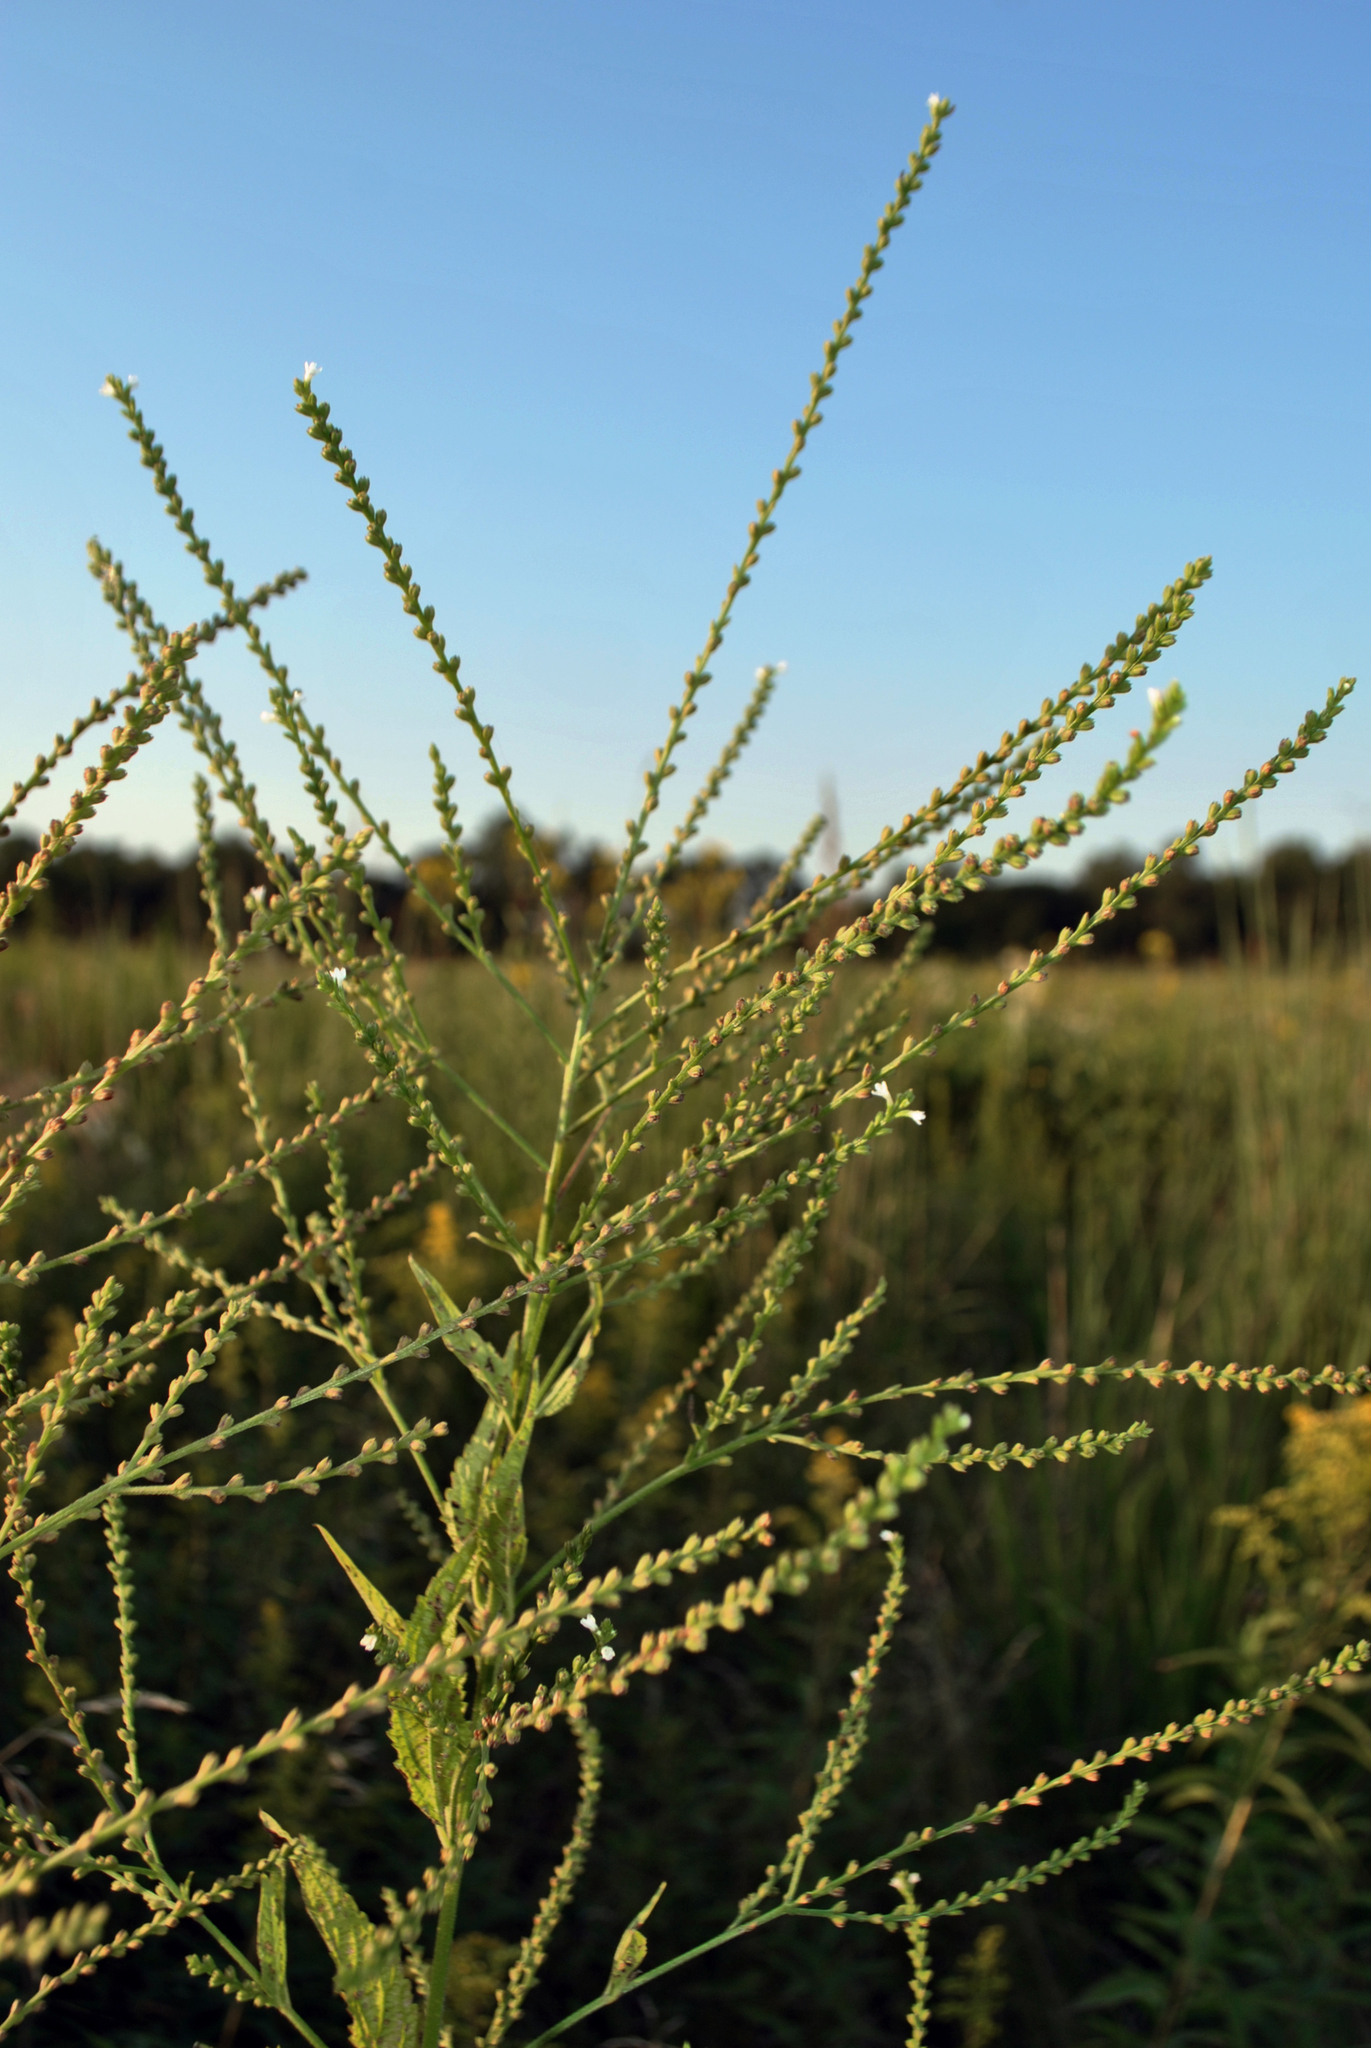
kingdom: Plantae
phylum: Tracheophyta
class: Magnoliopsida
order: Lamiales
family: Verbenaceae
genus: Verbena
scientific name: Verbena urticifolia
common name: Nettle-leaved vervain
